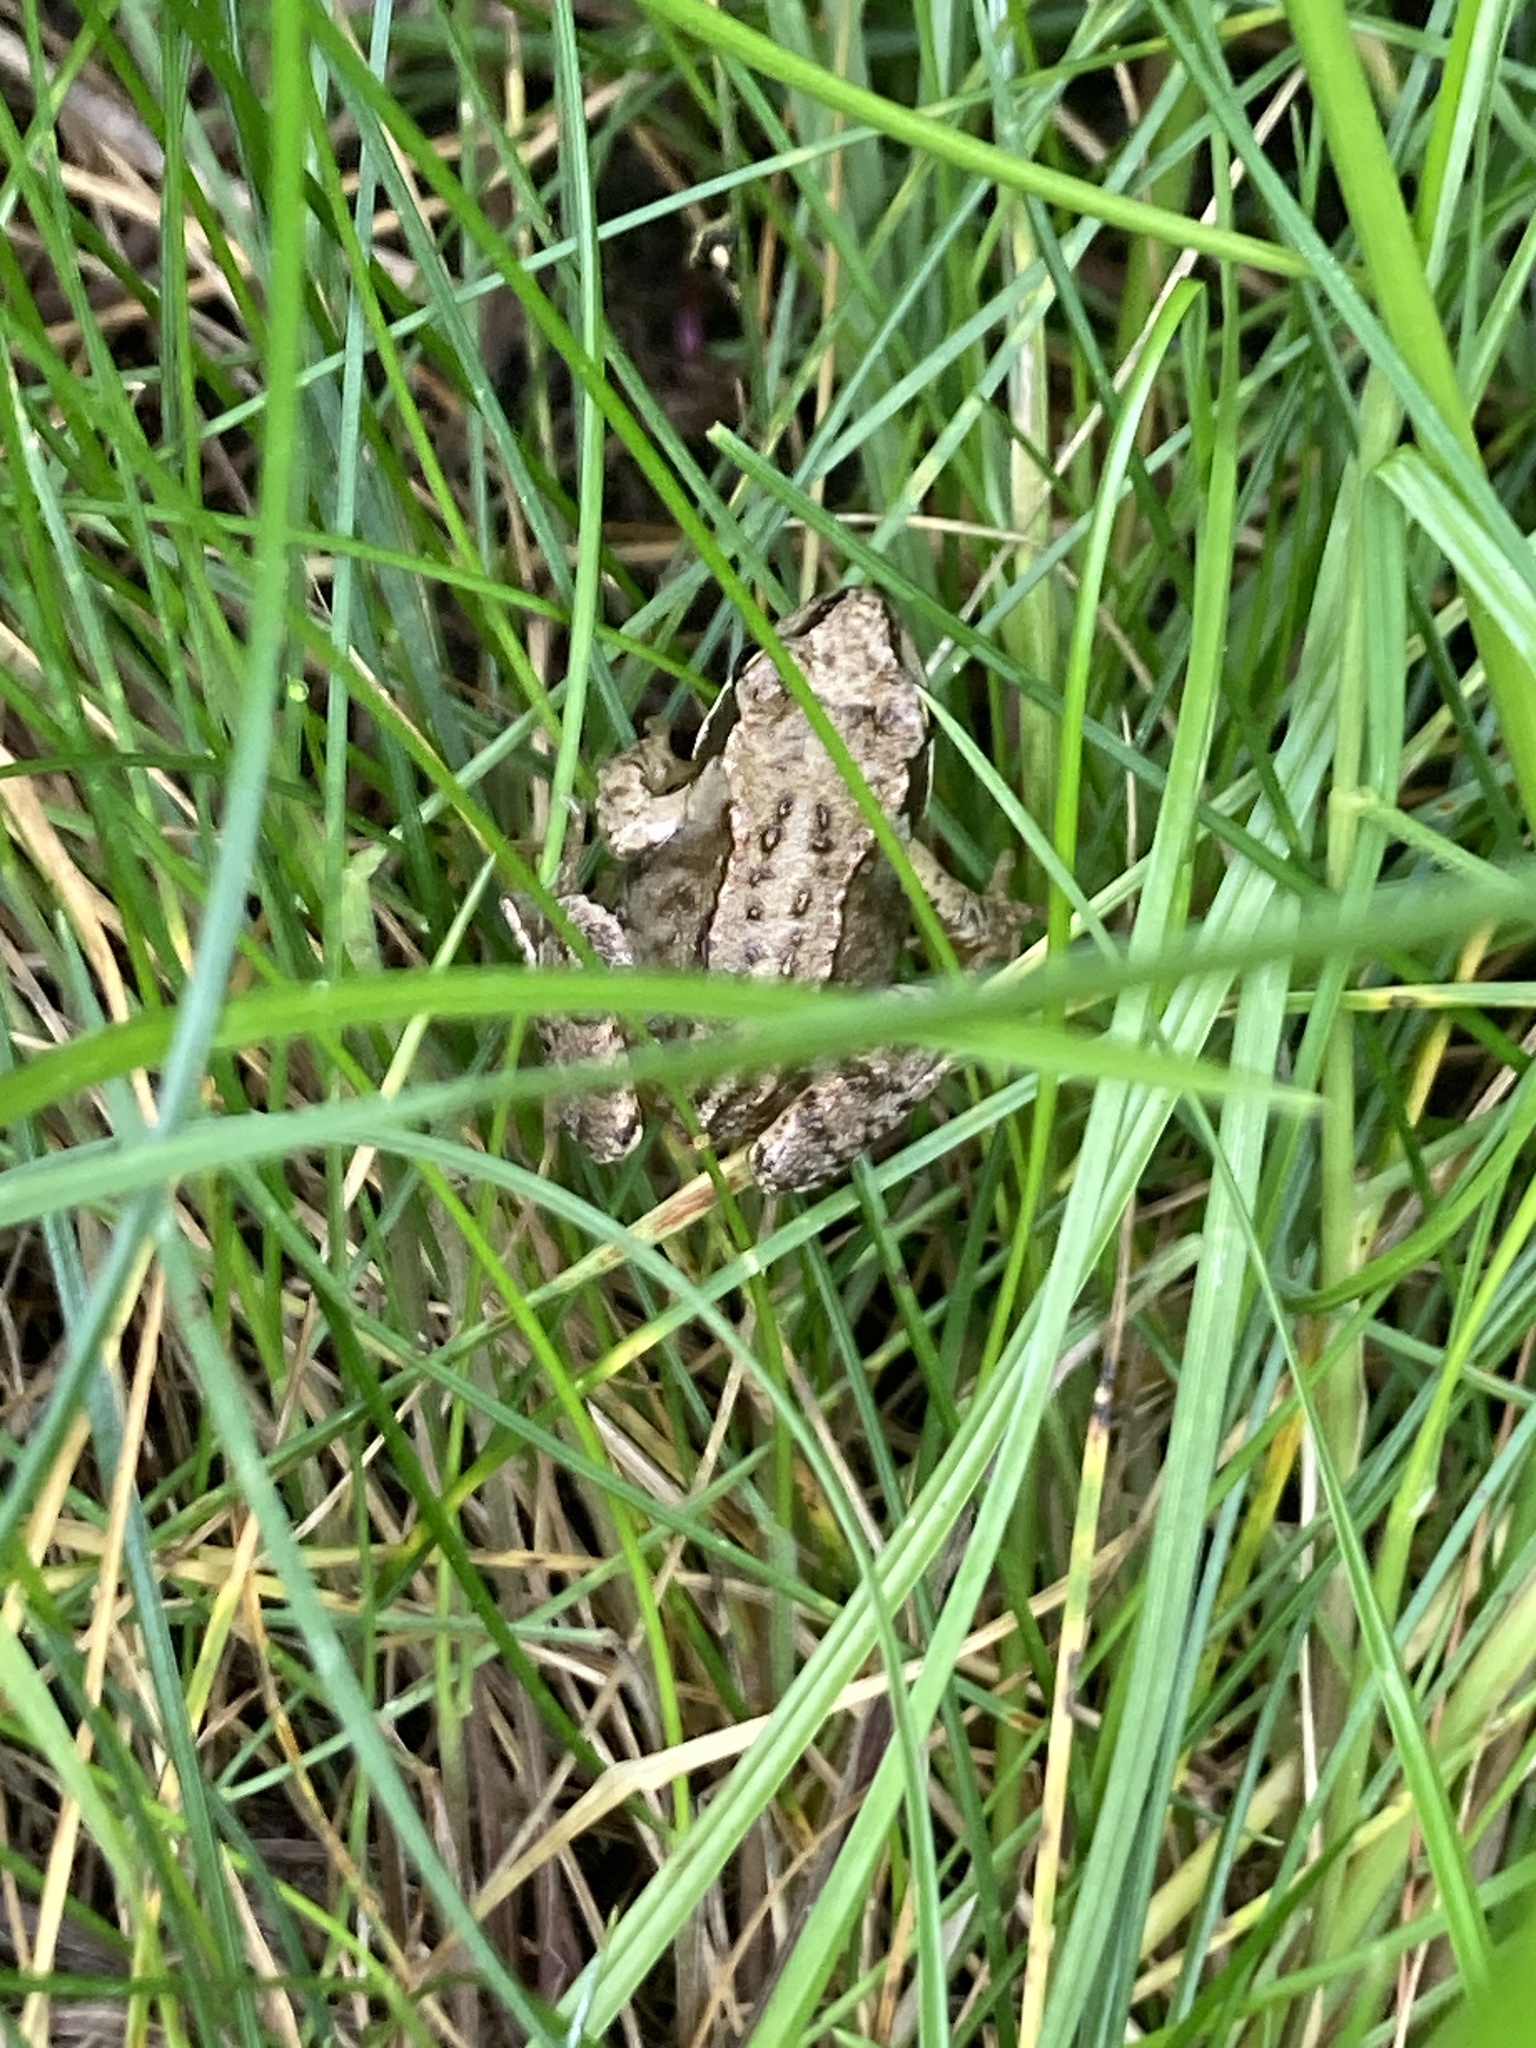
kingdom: Animalia
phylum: Chordata
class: Amphibia
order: Anura
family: Ranidae
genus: Rana
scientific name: Rana temporaria
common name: Common frog
